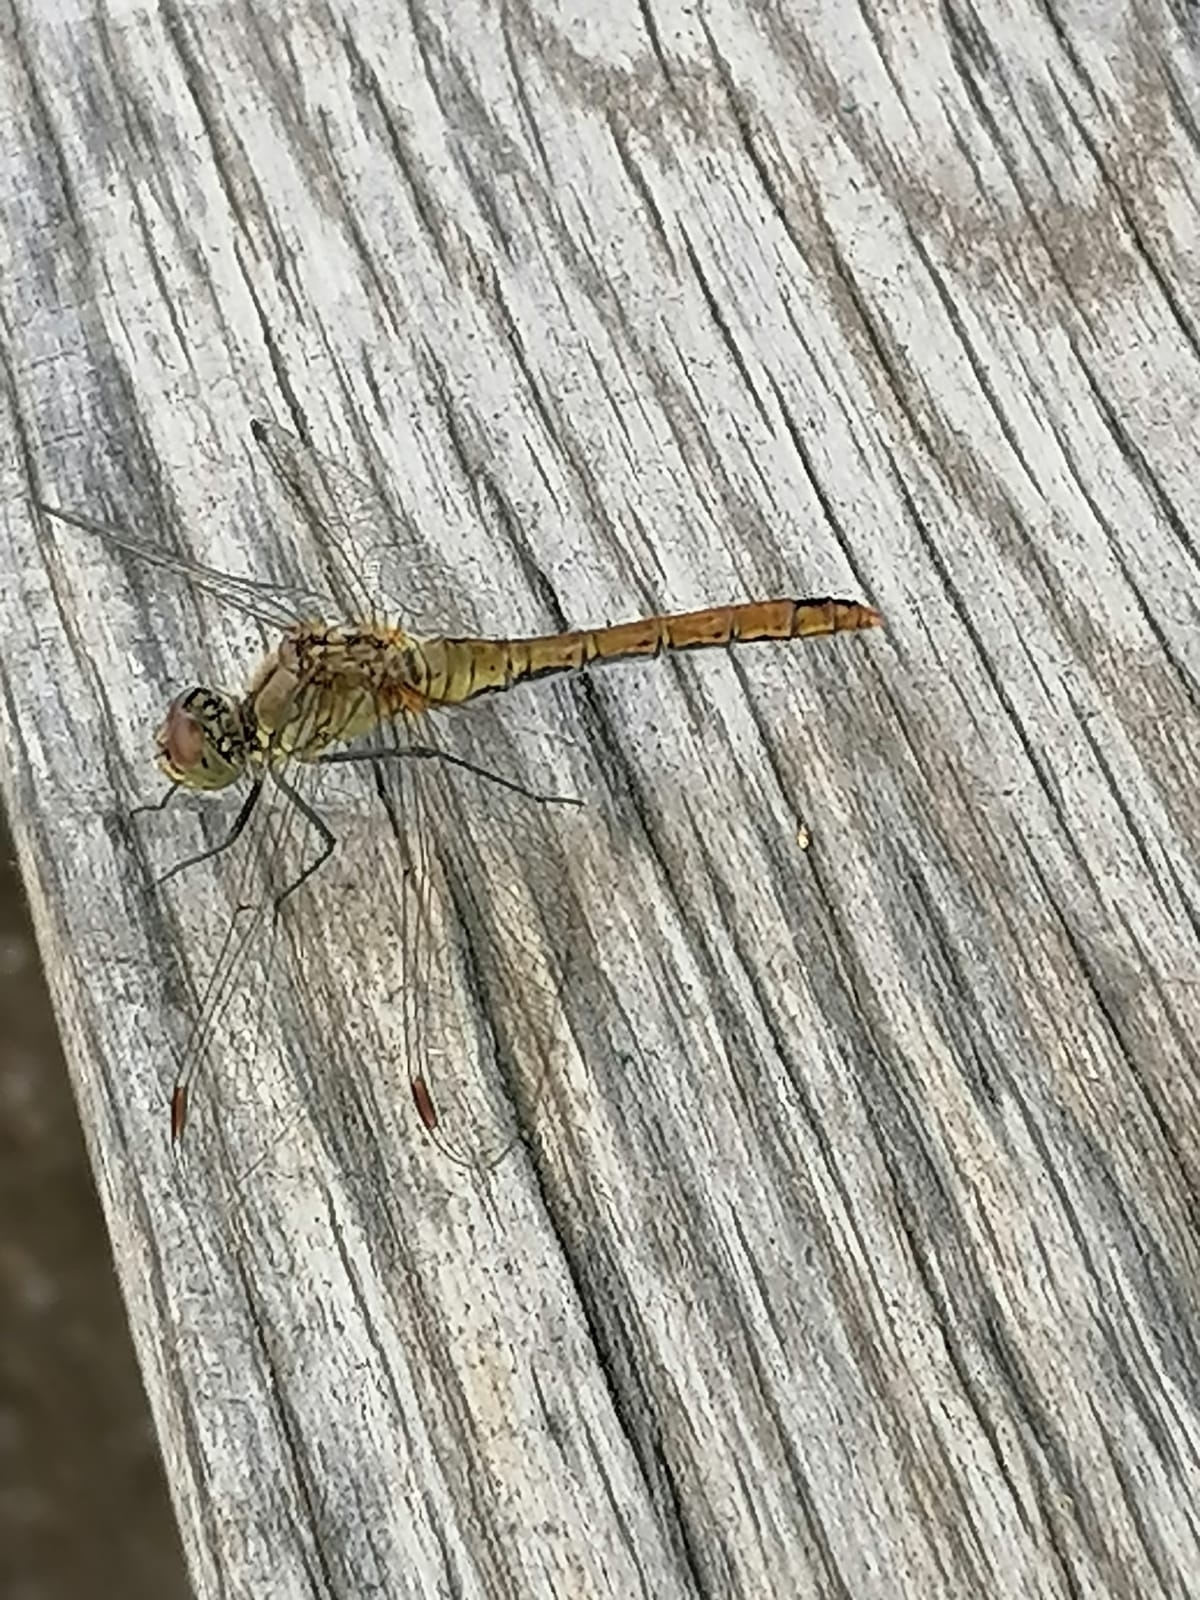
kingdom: Animalia
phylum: Arthropoda
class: Insecta
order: Odonata
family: Libellulidae
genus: Sympetrum
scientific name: Sympetrum sanguineum
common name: Ruddy darter
